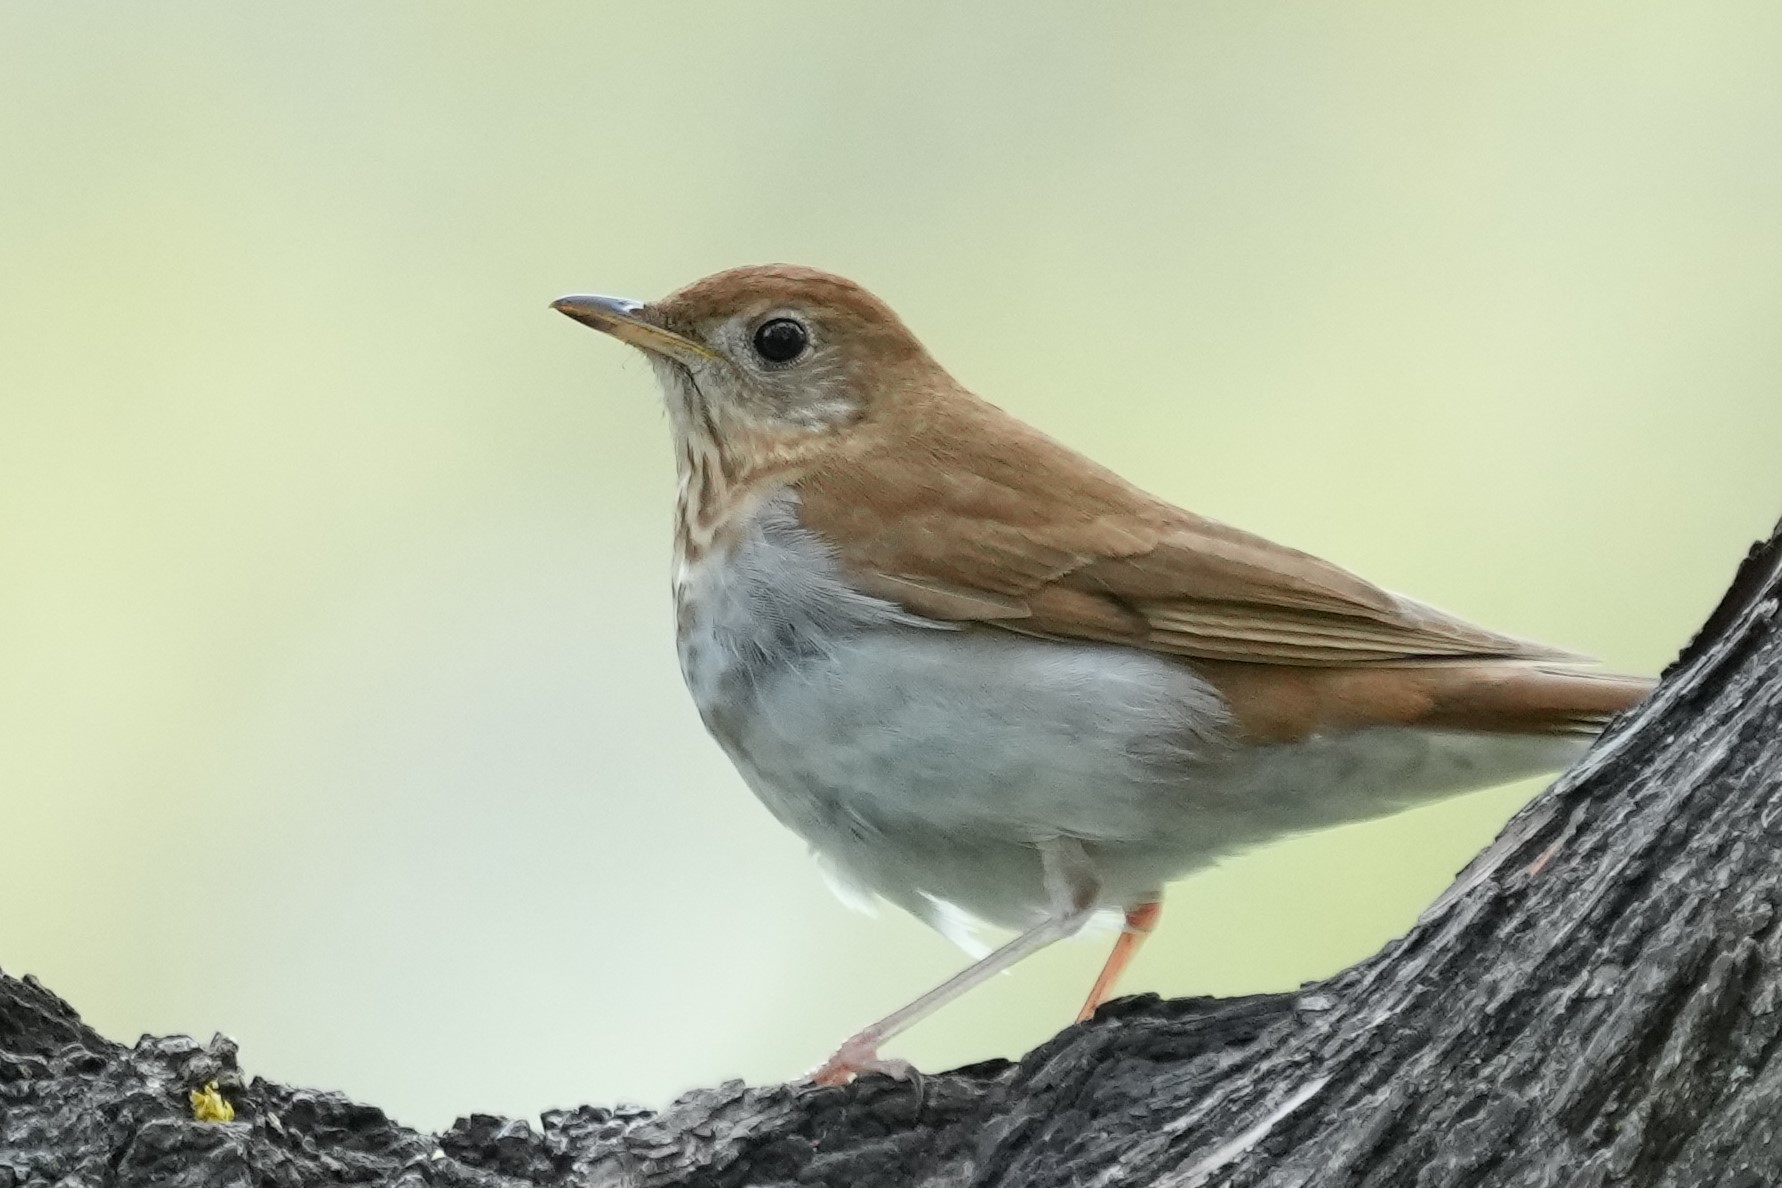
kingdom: Animalia
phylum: Chordata
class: Aves
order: Passeriformes
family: Turdidae
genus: Catharus
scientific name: Catharus fuscescens
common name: Veery
